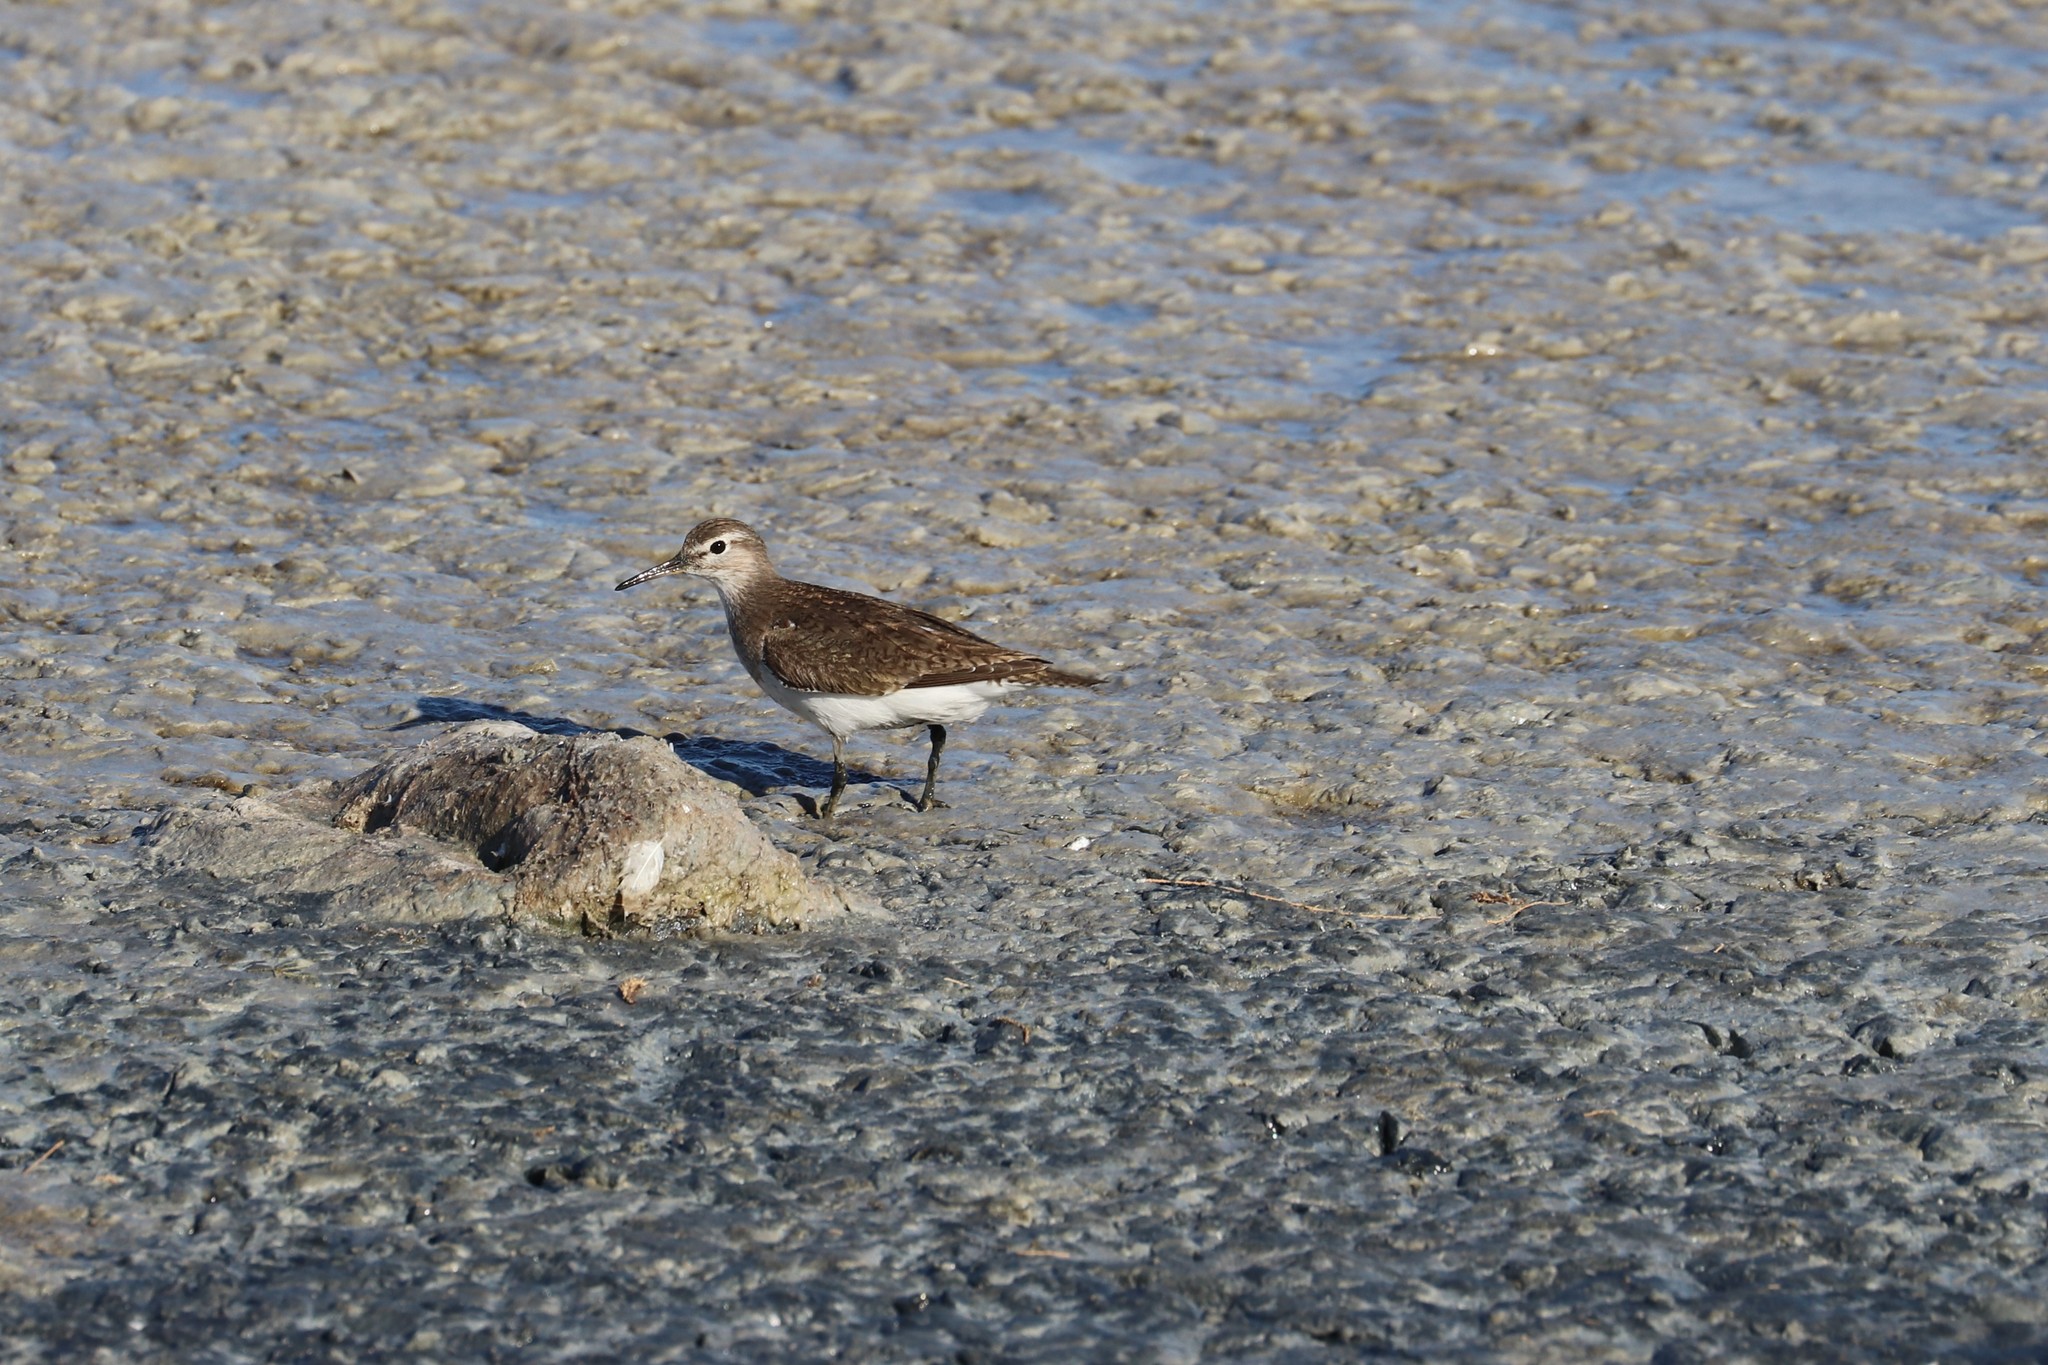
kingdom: Animalia
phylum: Chordata
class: Aves
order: Charadriiformes
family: Scolopacidae
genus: Actitis
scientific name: Actitis hypoleucos
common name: Common sandpiper
